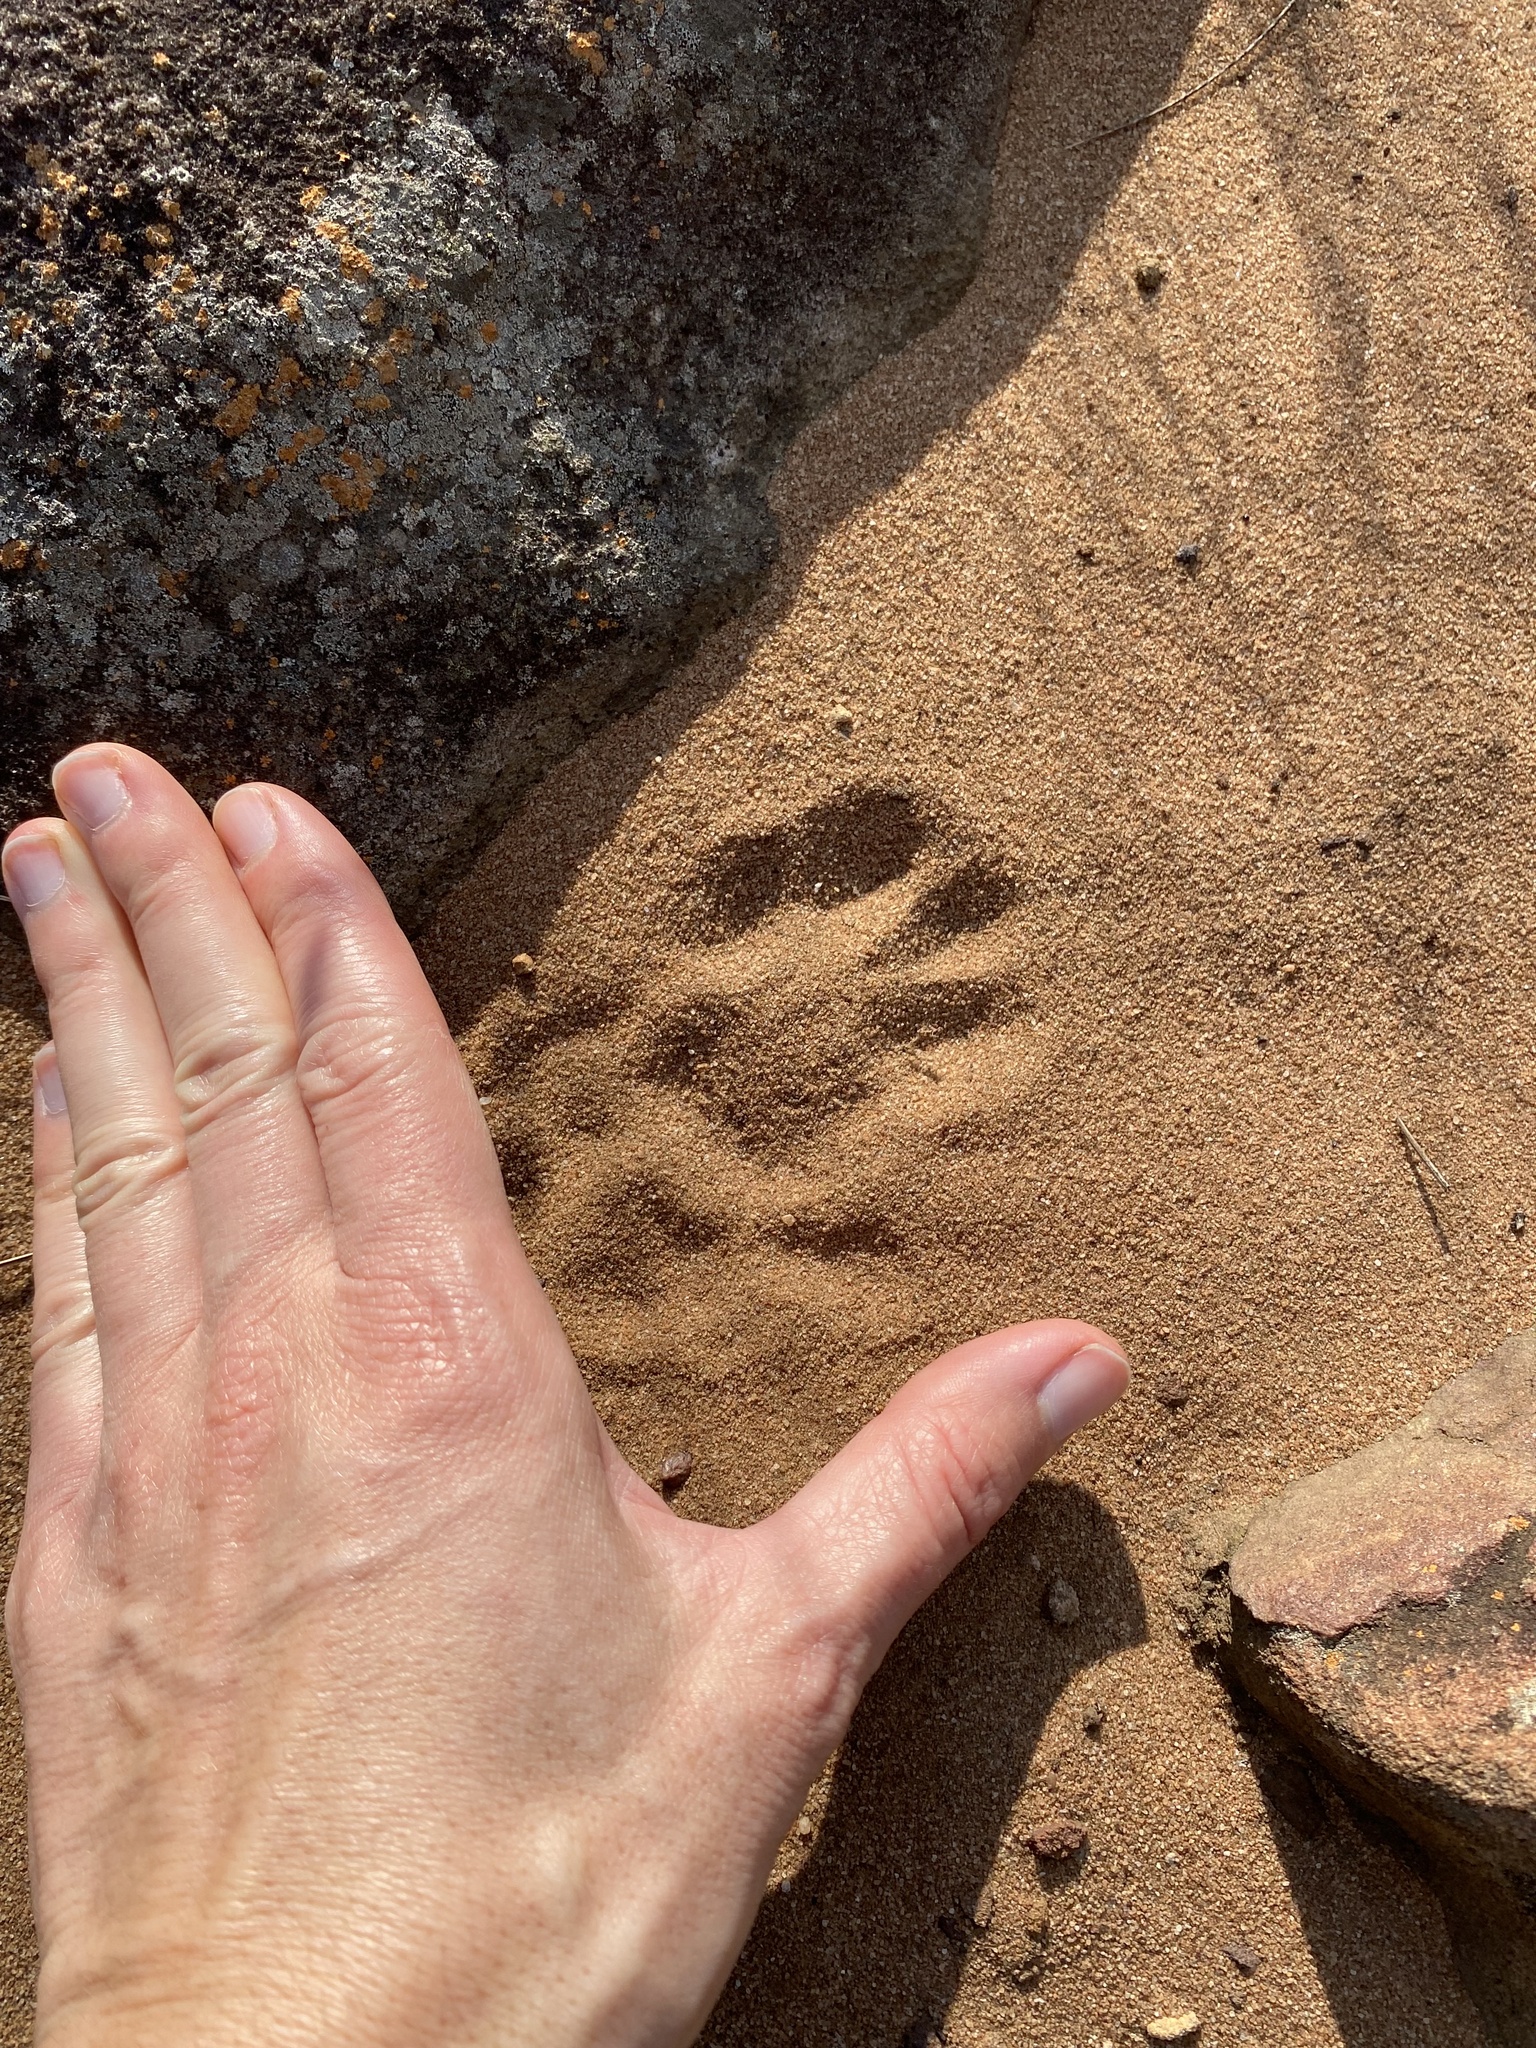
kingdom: Animalia
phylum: Chordata
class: Mammalia
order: Primates
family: Cercopithecidae
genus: Chlorocebus
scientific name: Chlorocebus pygerythrus
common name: Vervet monkey
